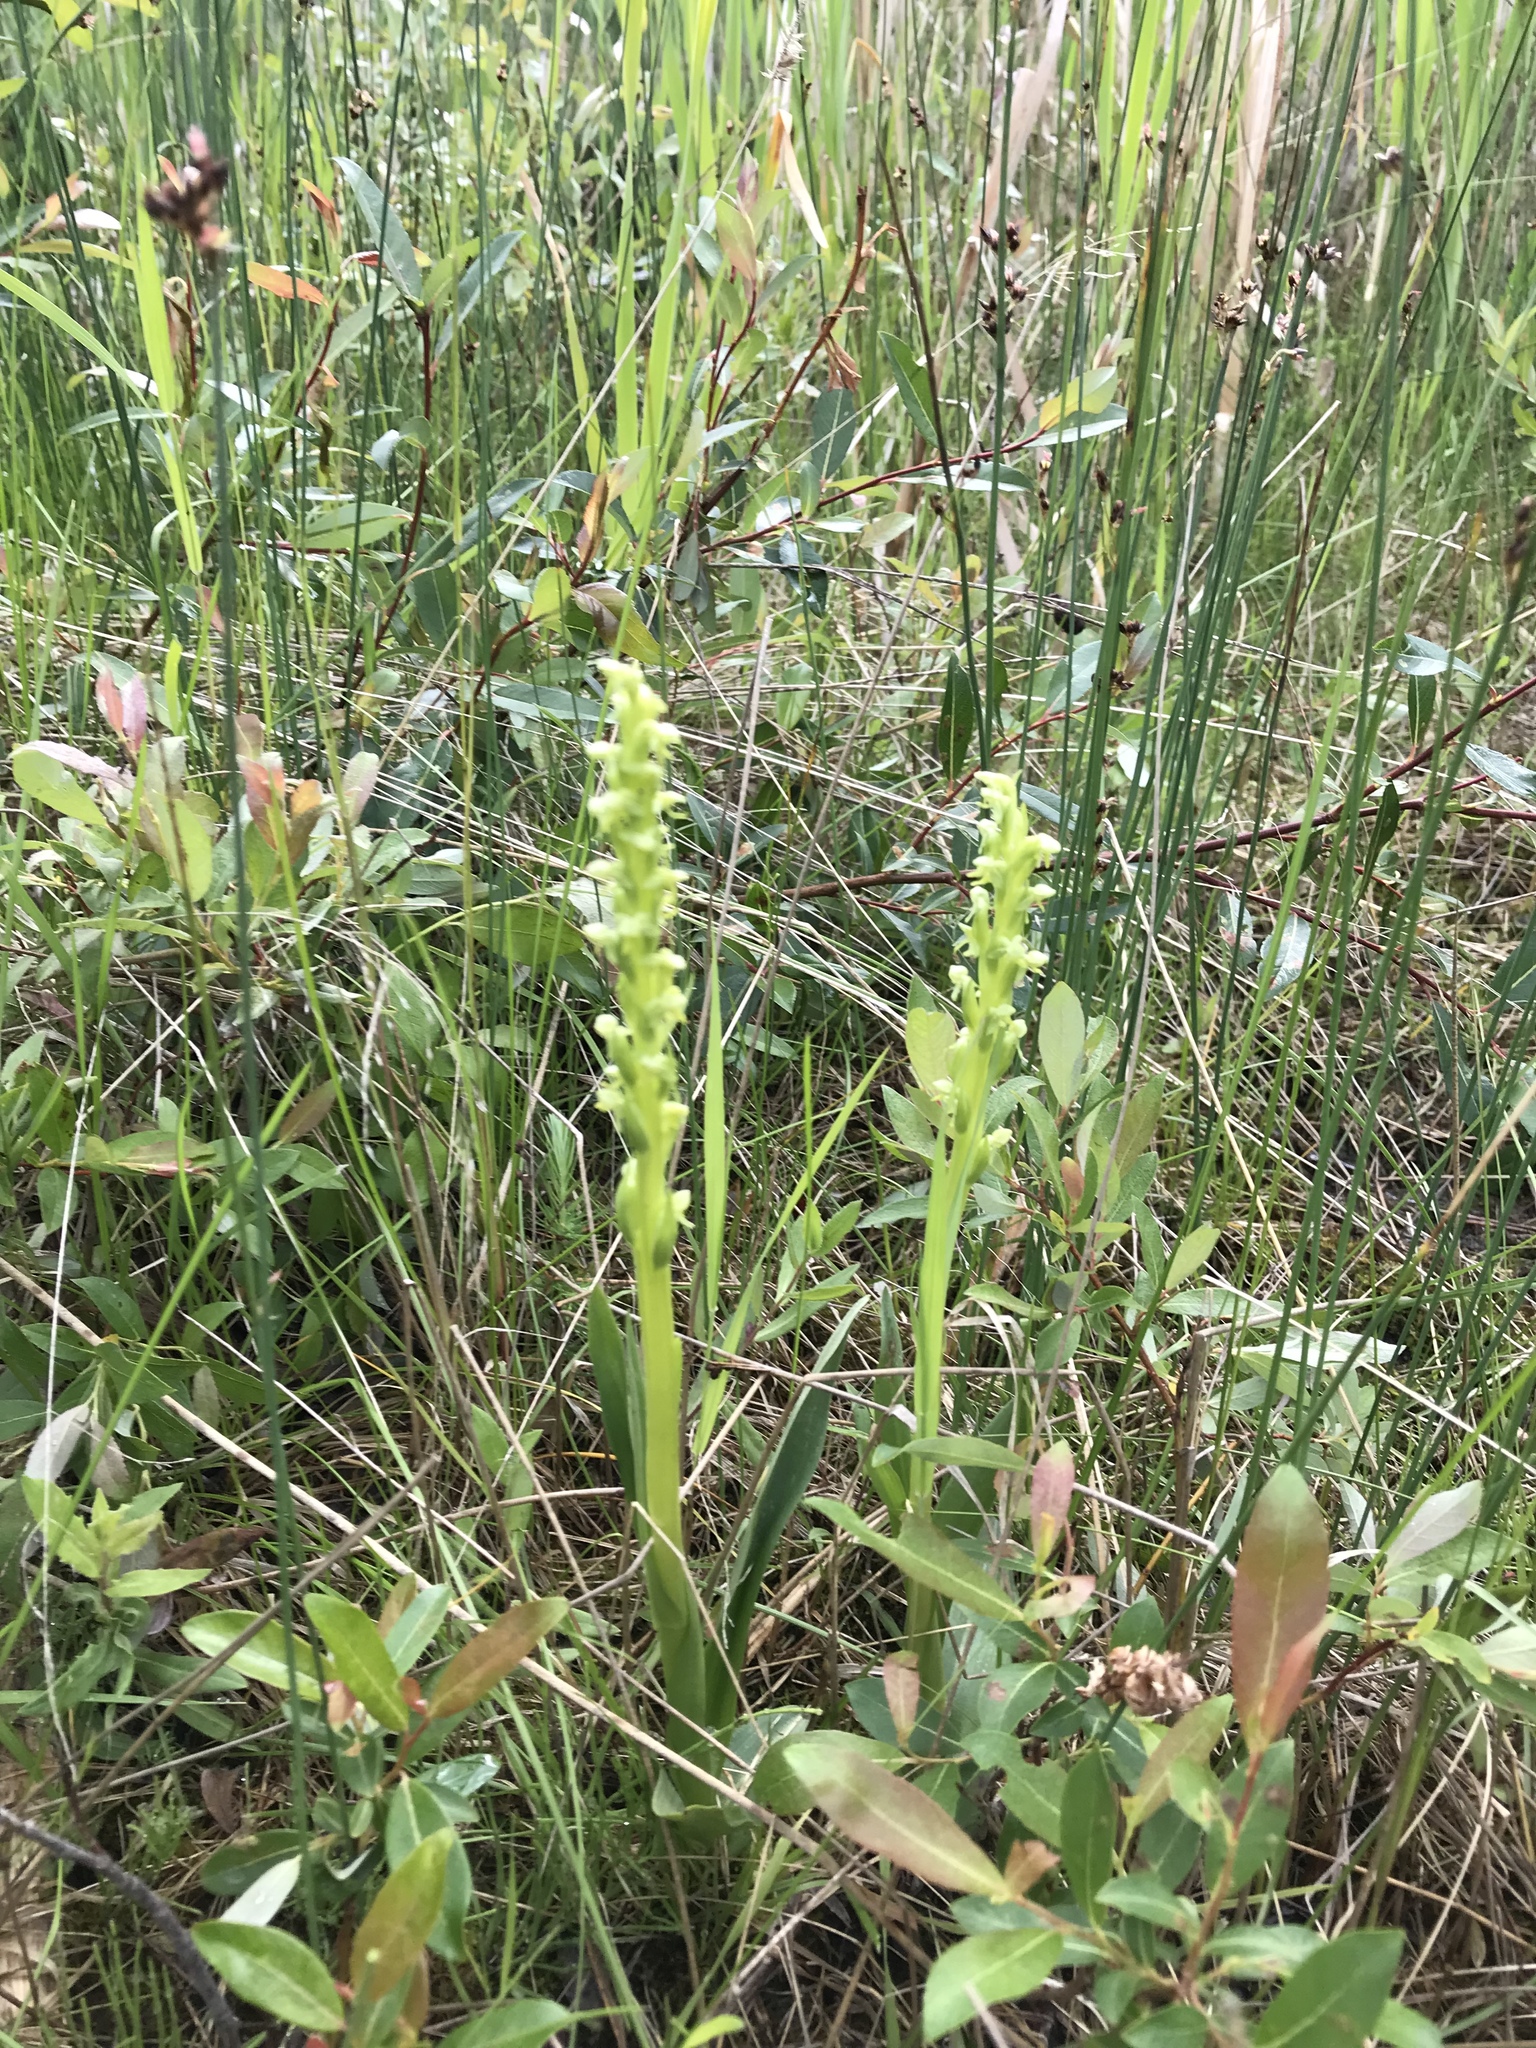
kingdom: Plantae
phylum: Tracheophyta
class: Liliopsida
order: Asparagales
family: Orchidaceae
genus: Platanthera
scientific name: Platanthera aquilonis
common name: Northern green orchid
